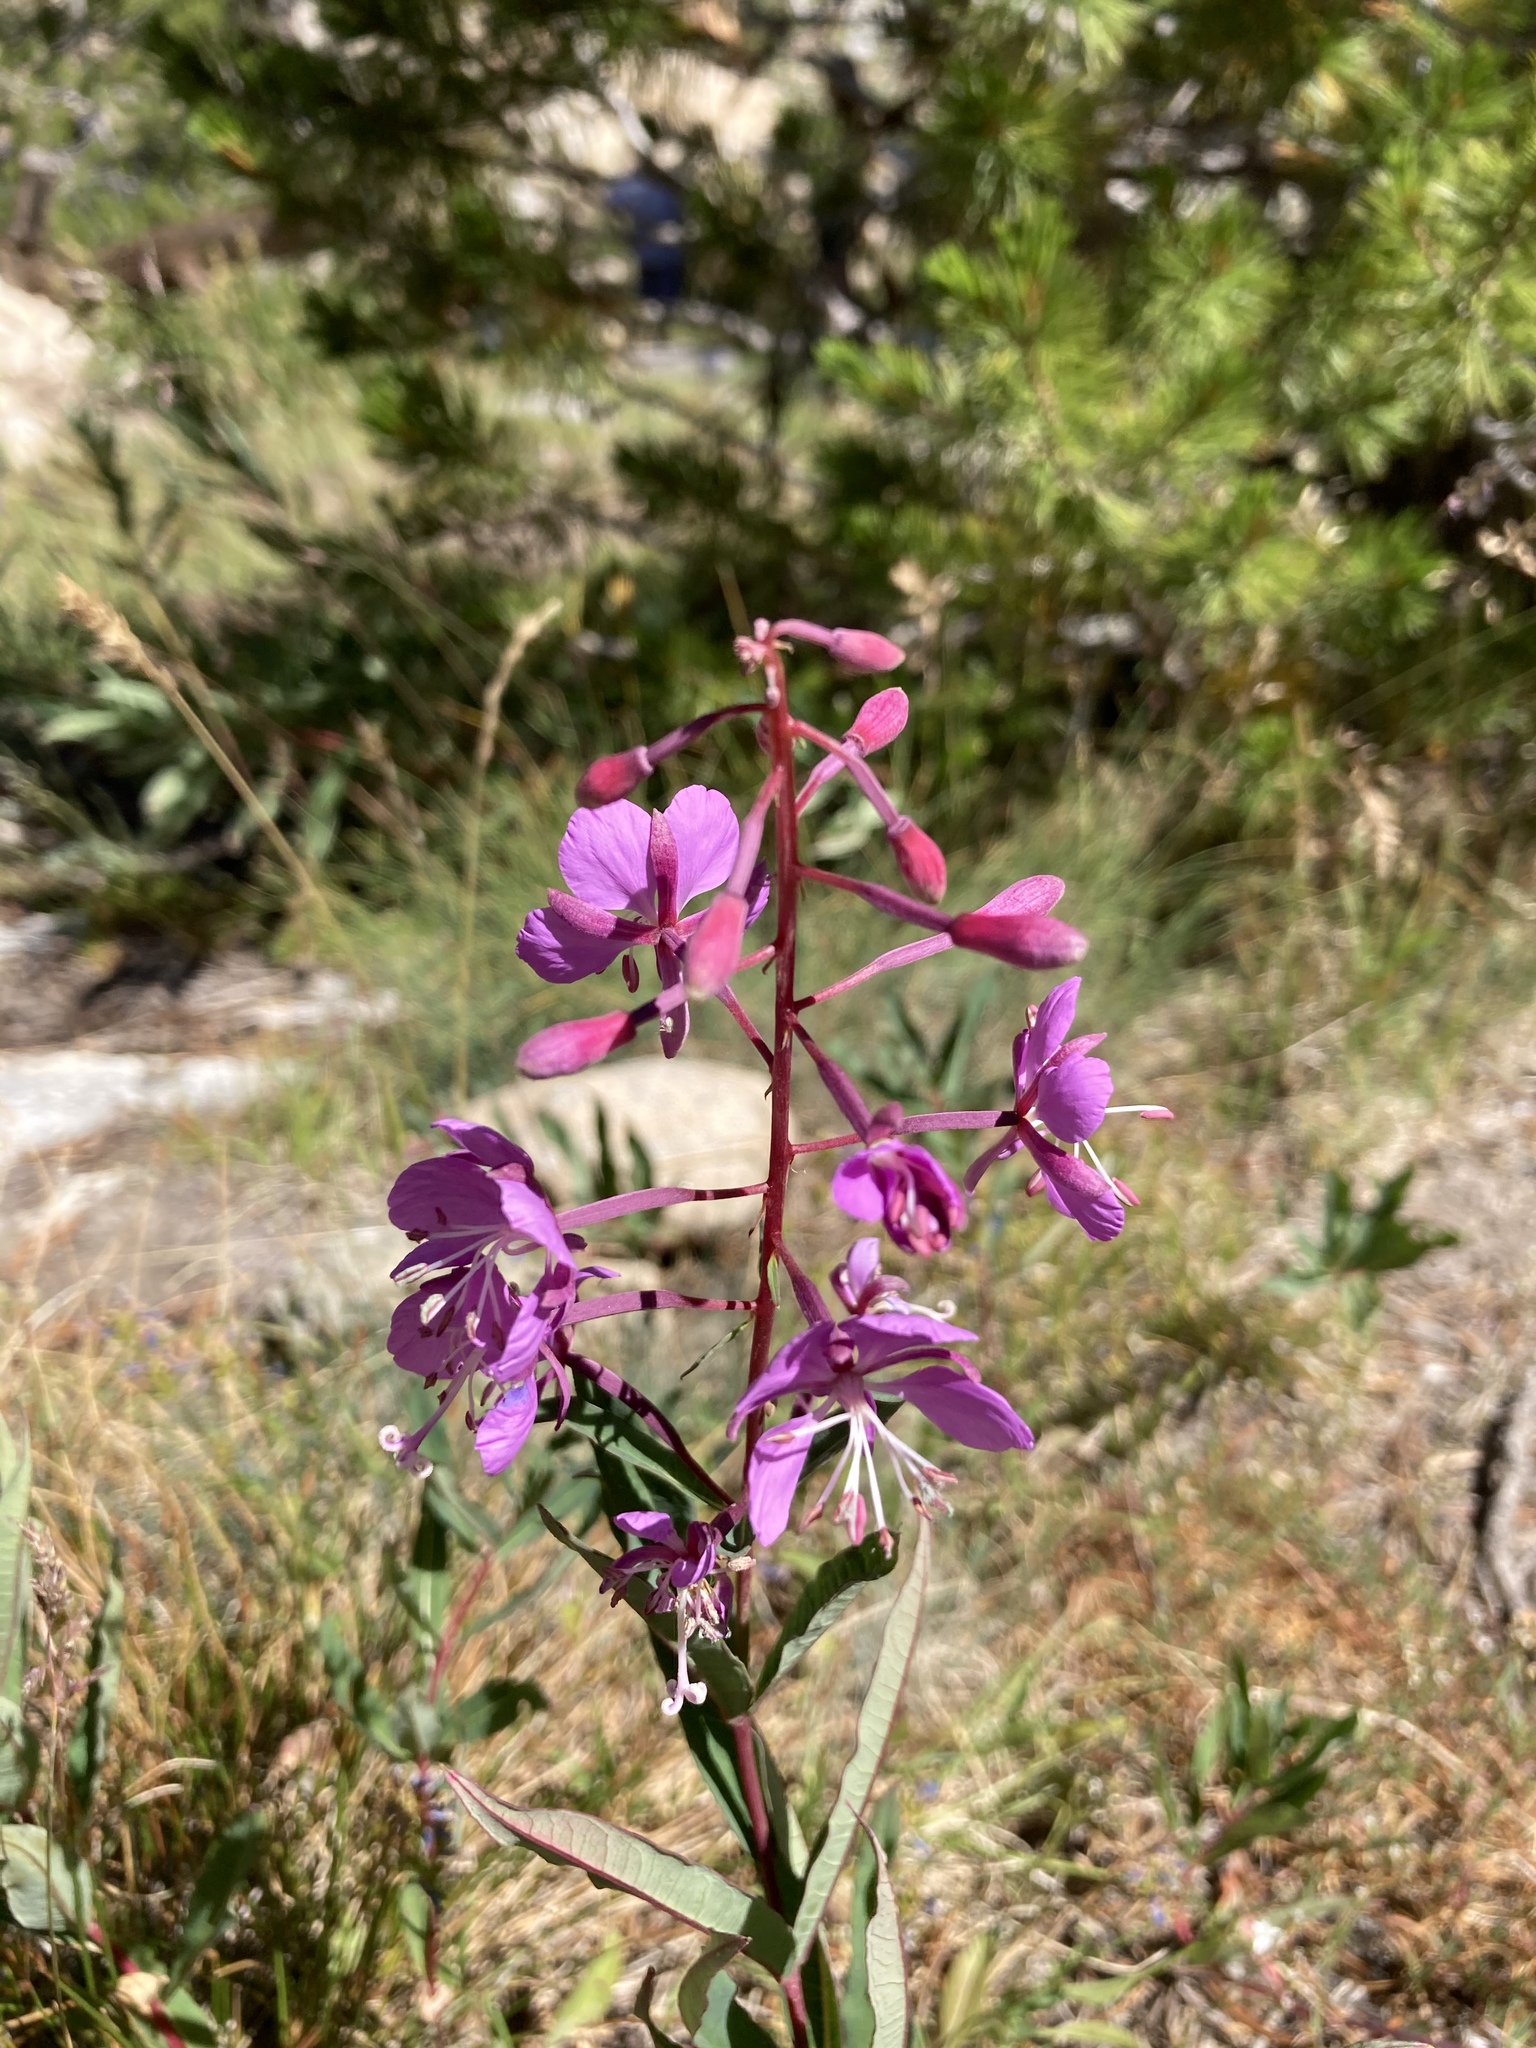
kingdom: Plantae
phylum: Tracheophyta
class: Magnoliopsida
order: Myrtales
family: Onagraceae
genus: Chamaenerion
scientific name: Chamaenerion angustifolium
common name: Fireweed
